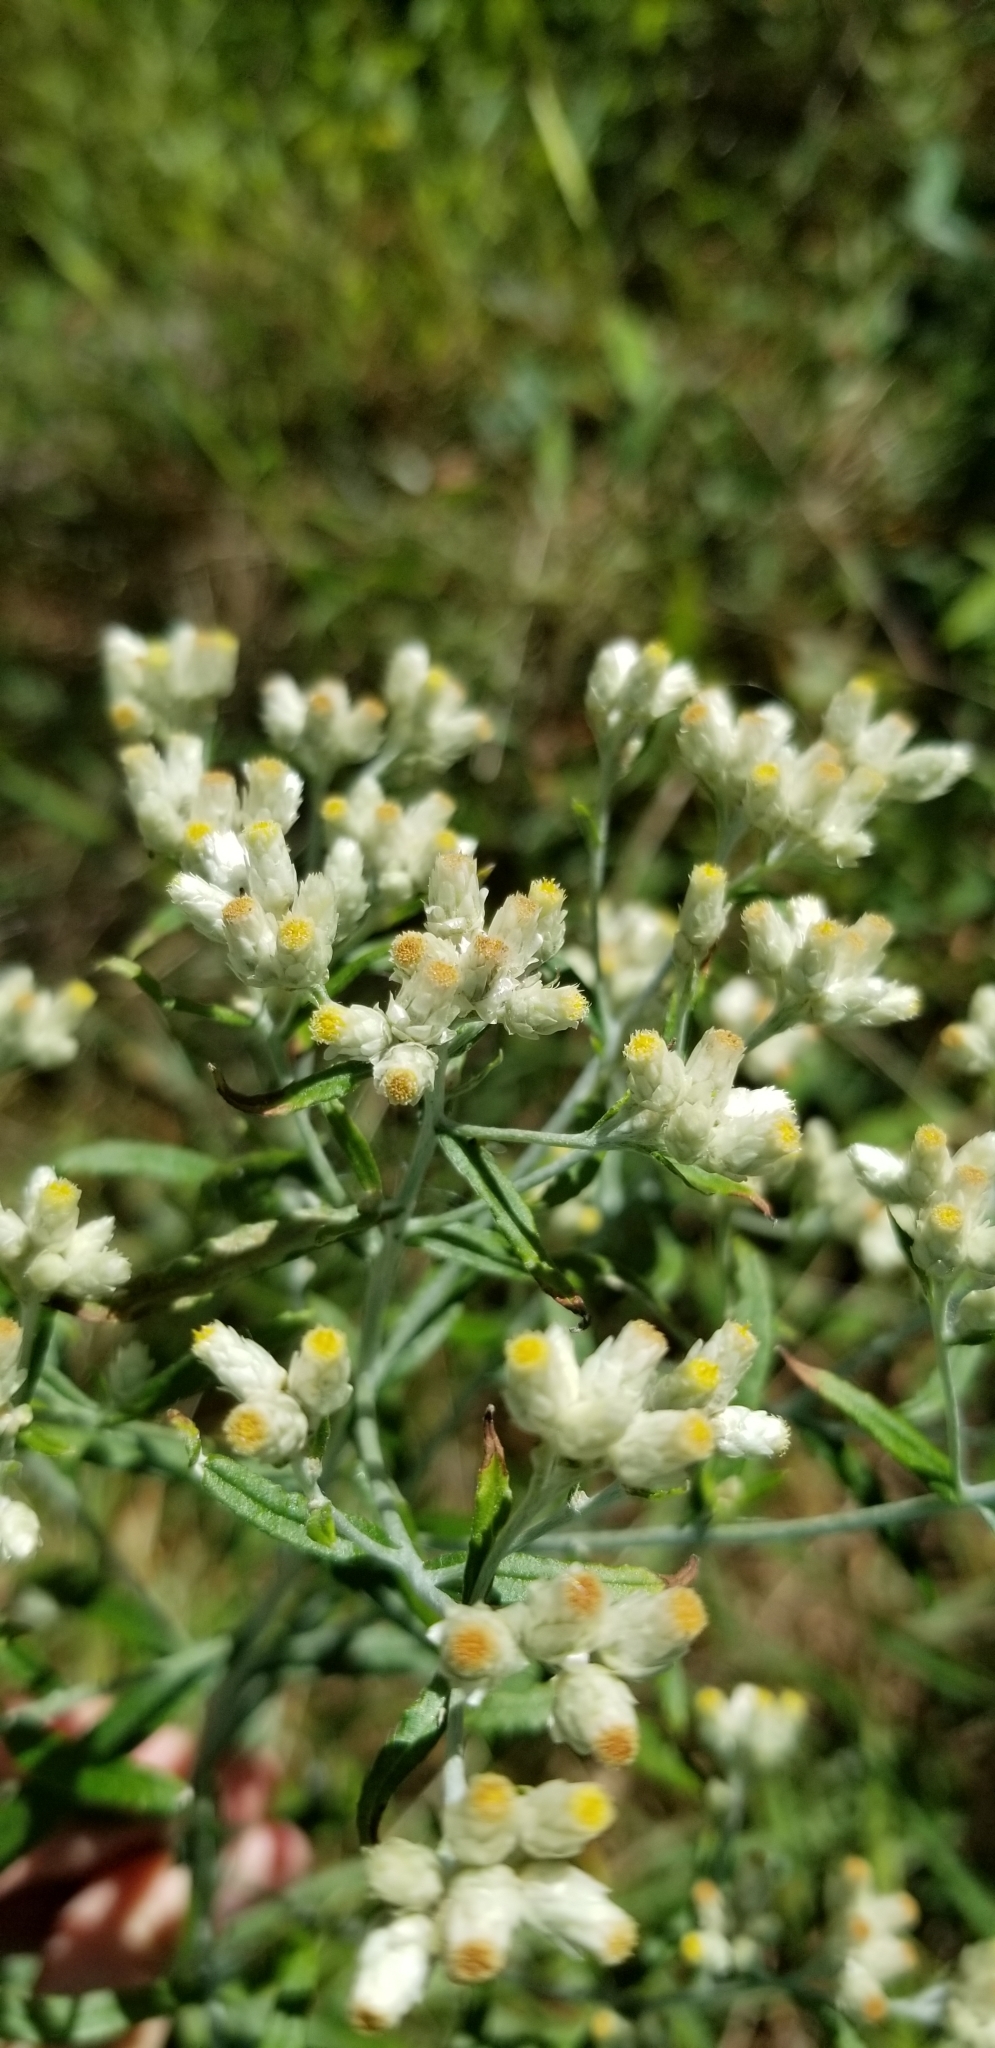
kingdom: Plantae
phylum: Tracheophyta
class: Magnoliopsida
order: Asterales
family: Asteraceae
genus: Pseudognaphalium
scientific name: Pseudognaphalium obtusifolium
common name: Eastern rabbit-tobacco
